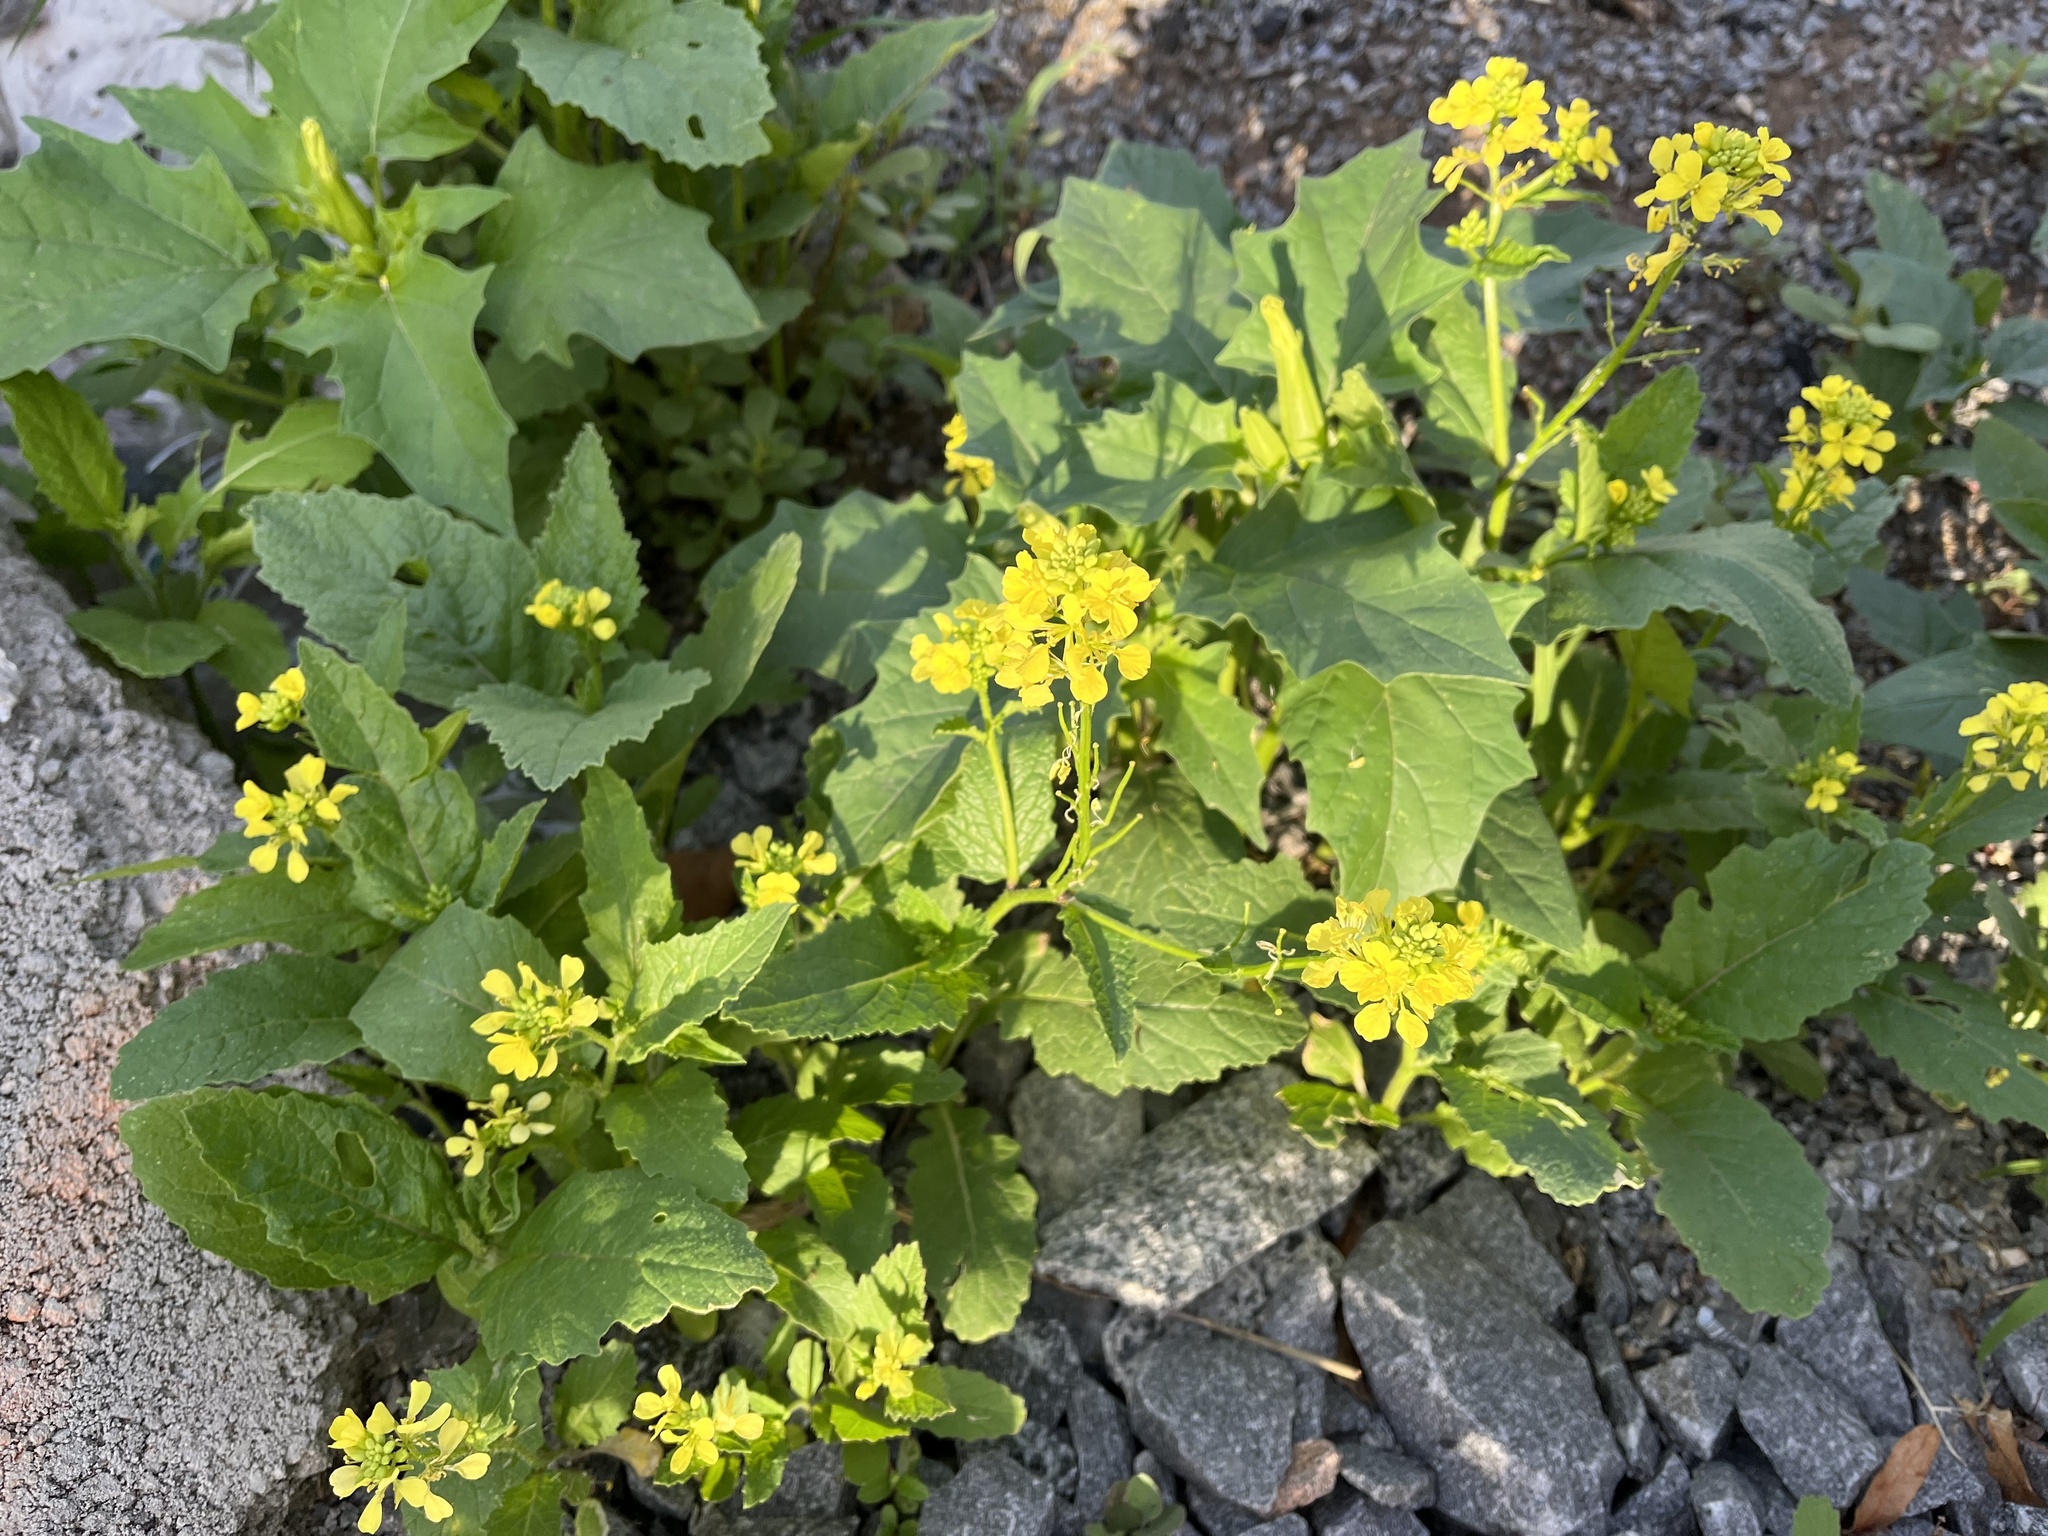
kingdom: Plantae
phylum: Tracheophyta
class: Magnoliopsida
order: Brassicales
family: Brassicaceae
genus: Sinapis
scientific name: Sinapis arvensis
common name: Charlock
